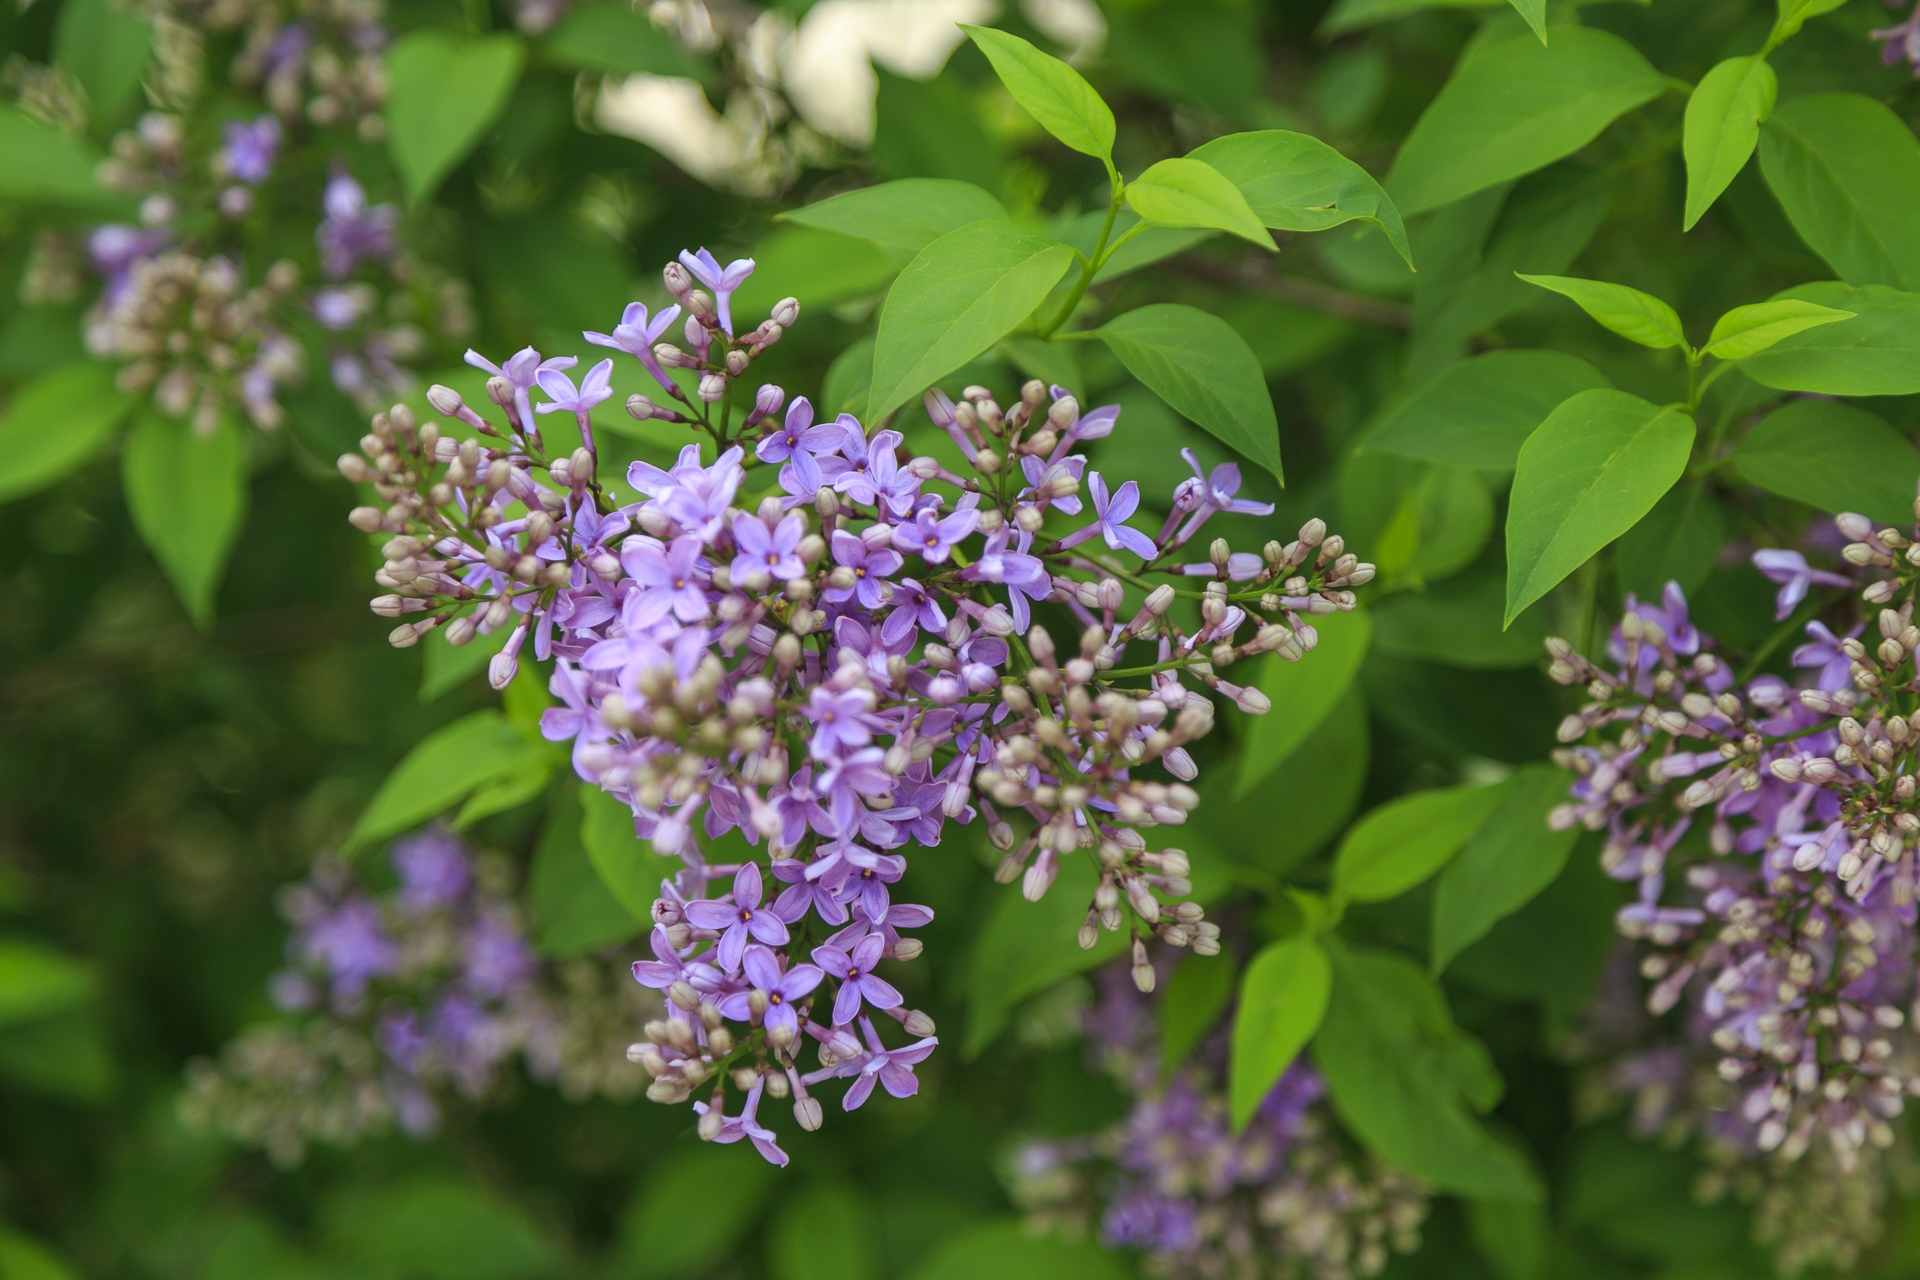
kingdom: Plantae
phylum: Tracheophyta
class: Magnoliopsida
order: Lamiales
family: Oleaceae
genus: Syringa
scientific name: Syringa vulgaris
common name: Common lilac
